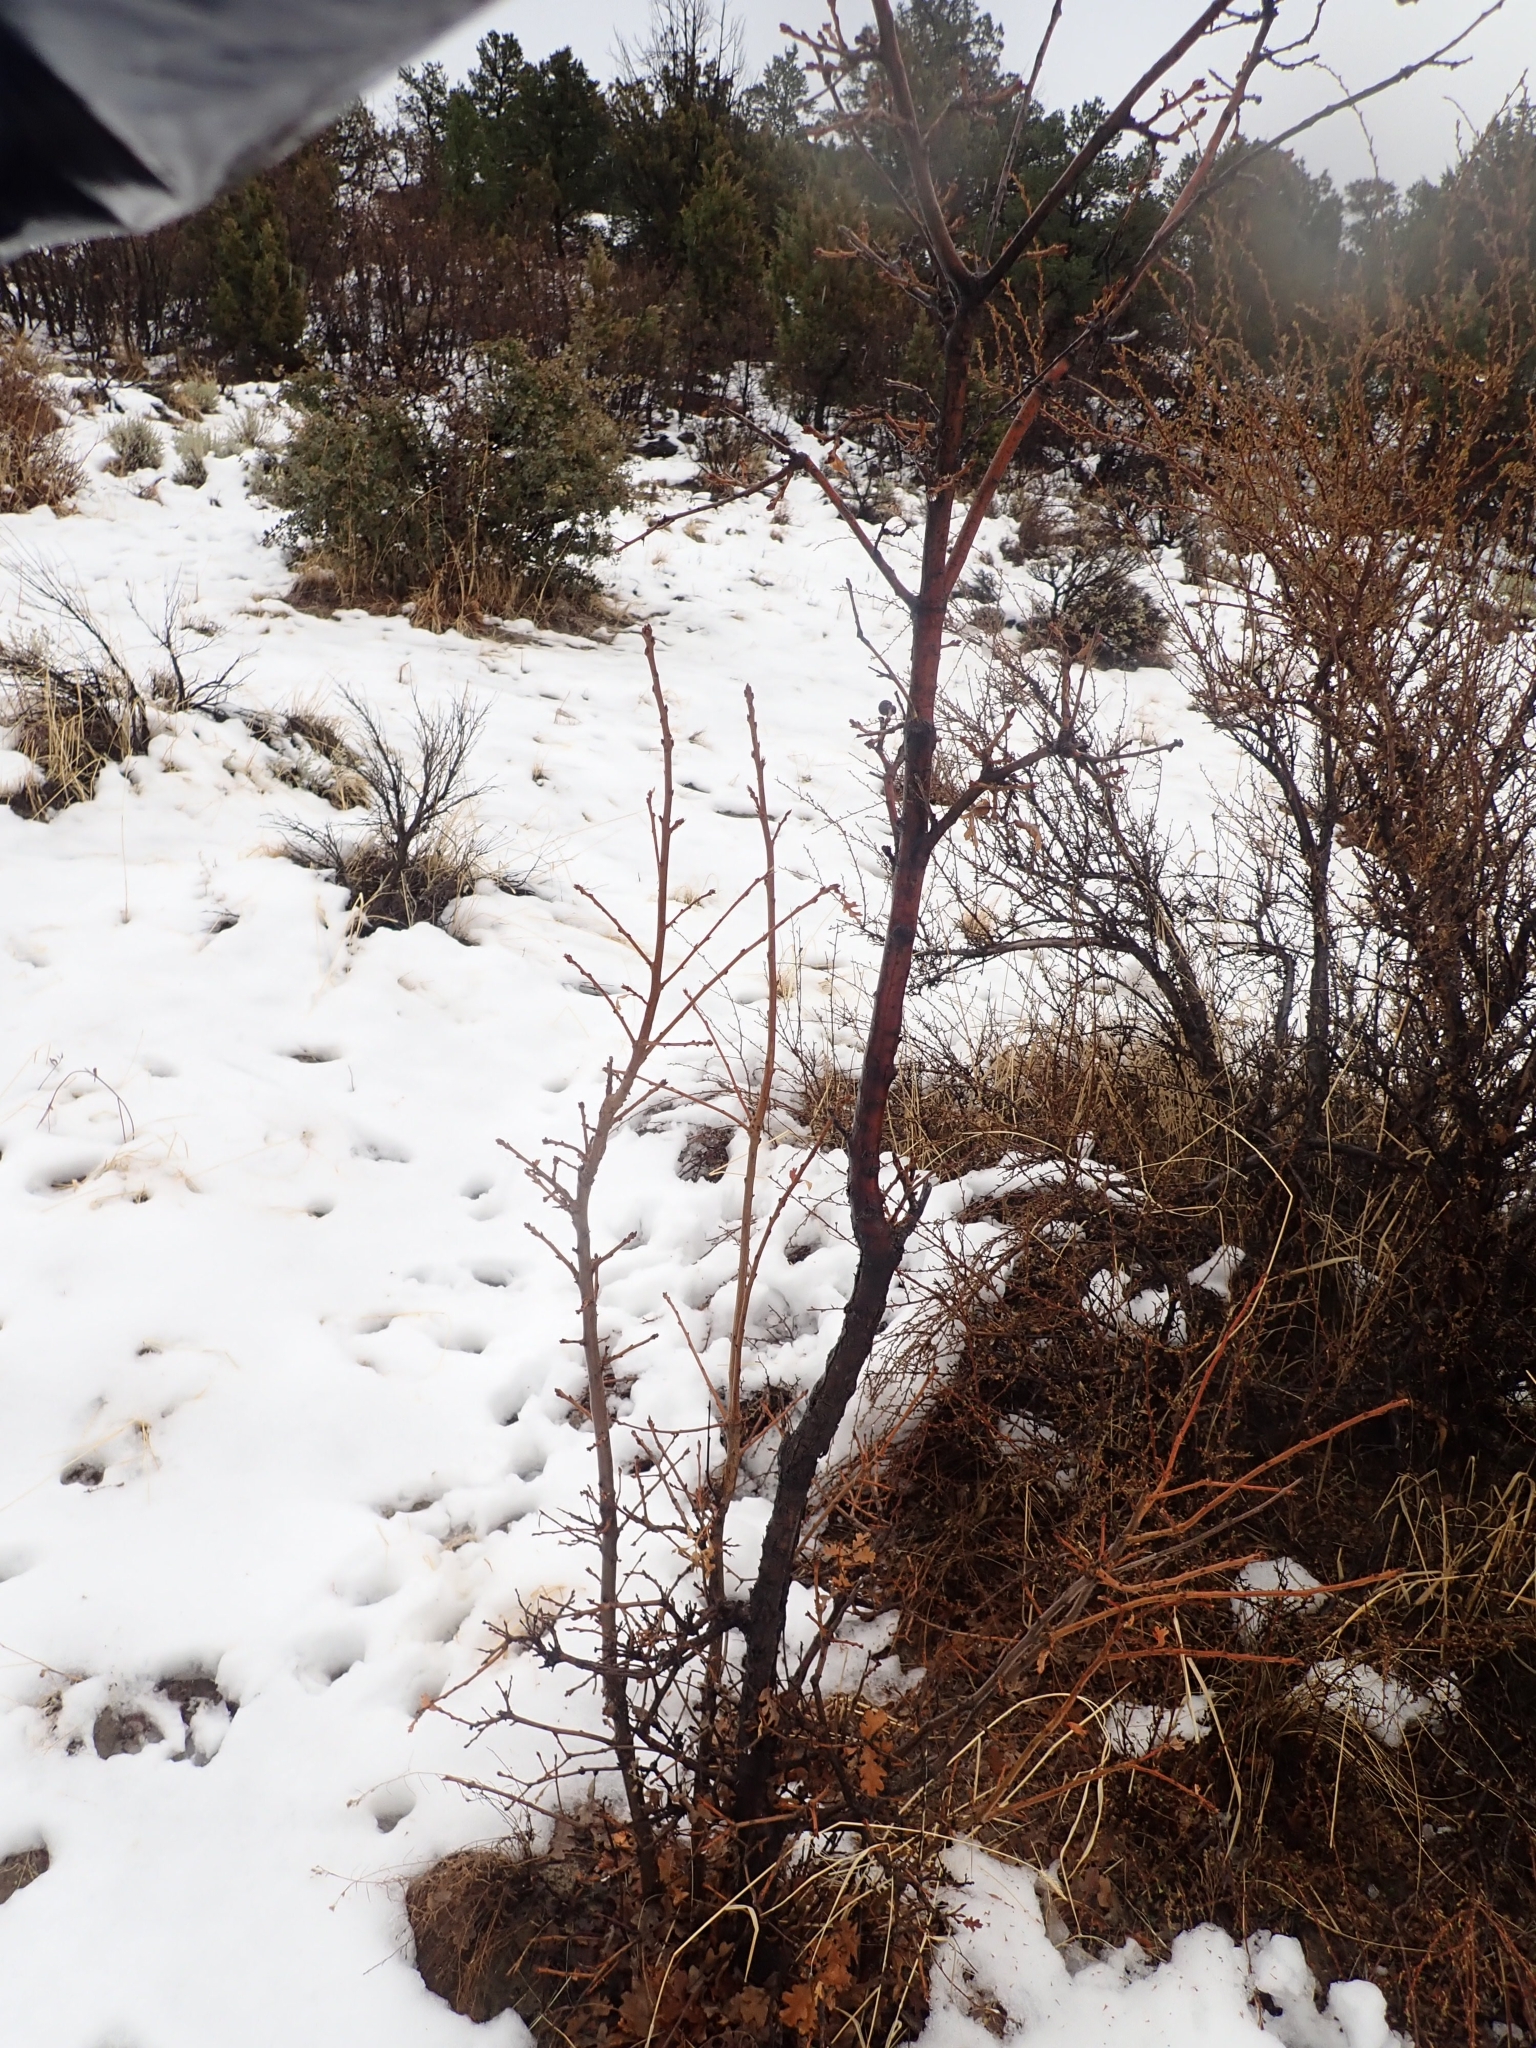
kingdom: Plantae
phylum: Tracheophyta
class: Magnoliopsida
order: Fagales
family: Fagaceae
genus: Quercus
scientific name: Quercus gambelii
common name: Gambel oak
